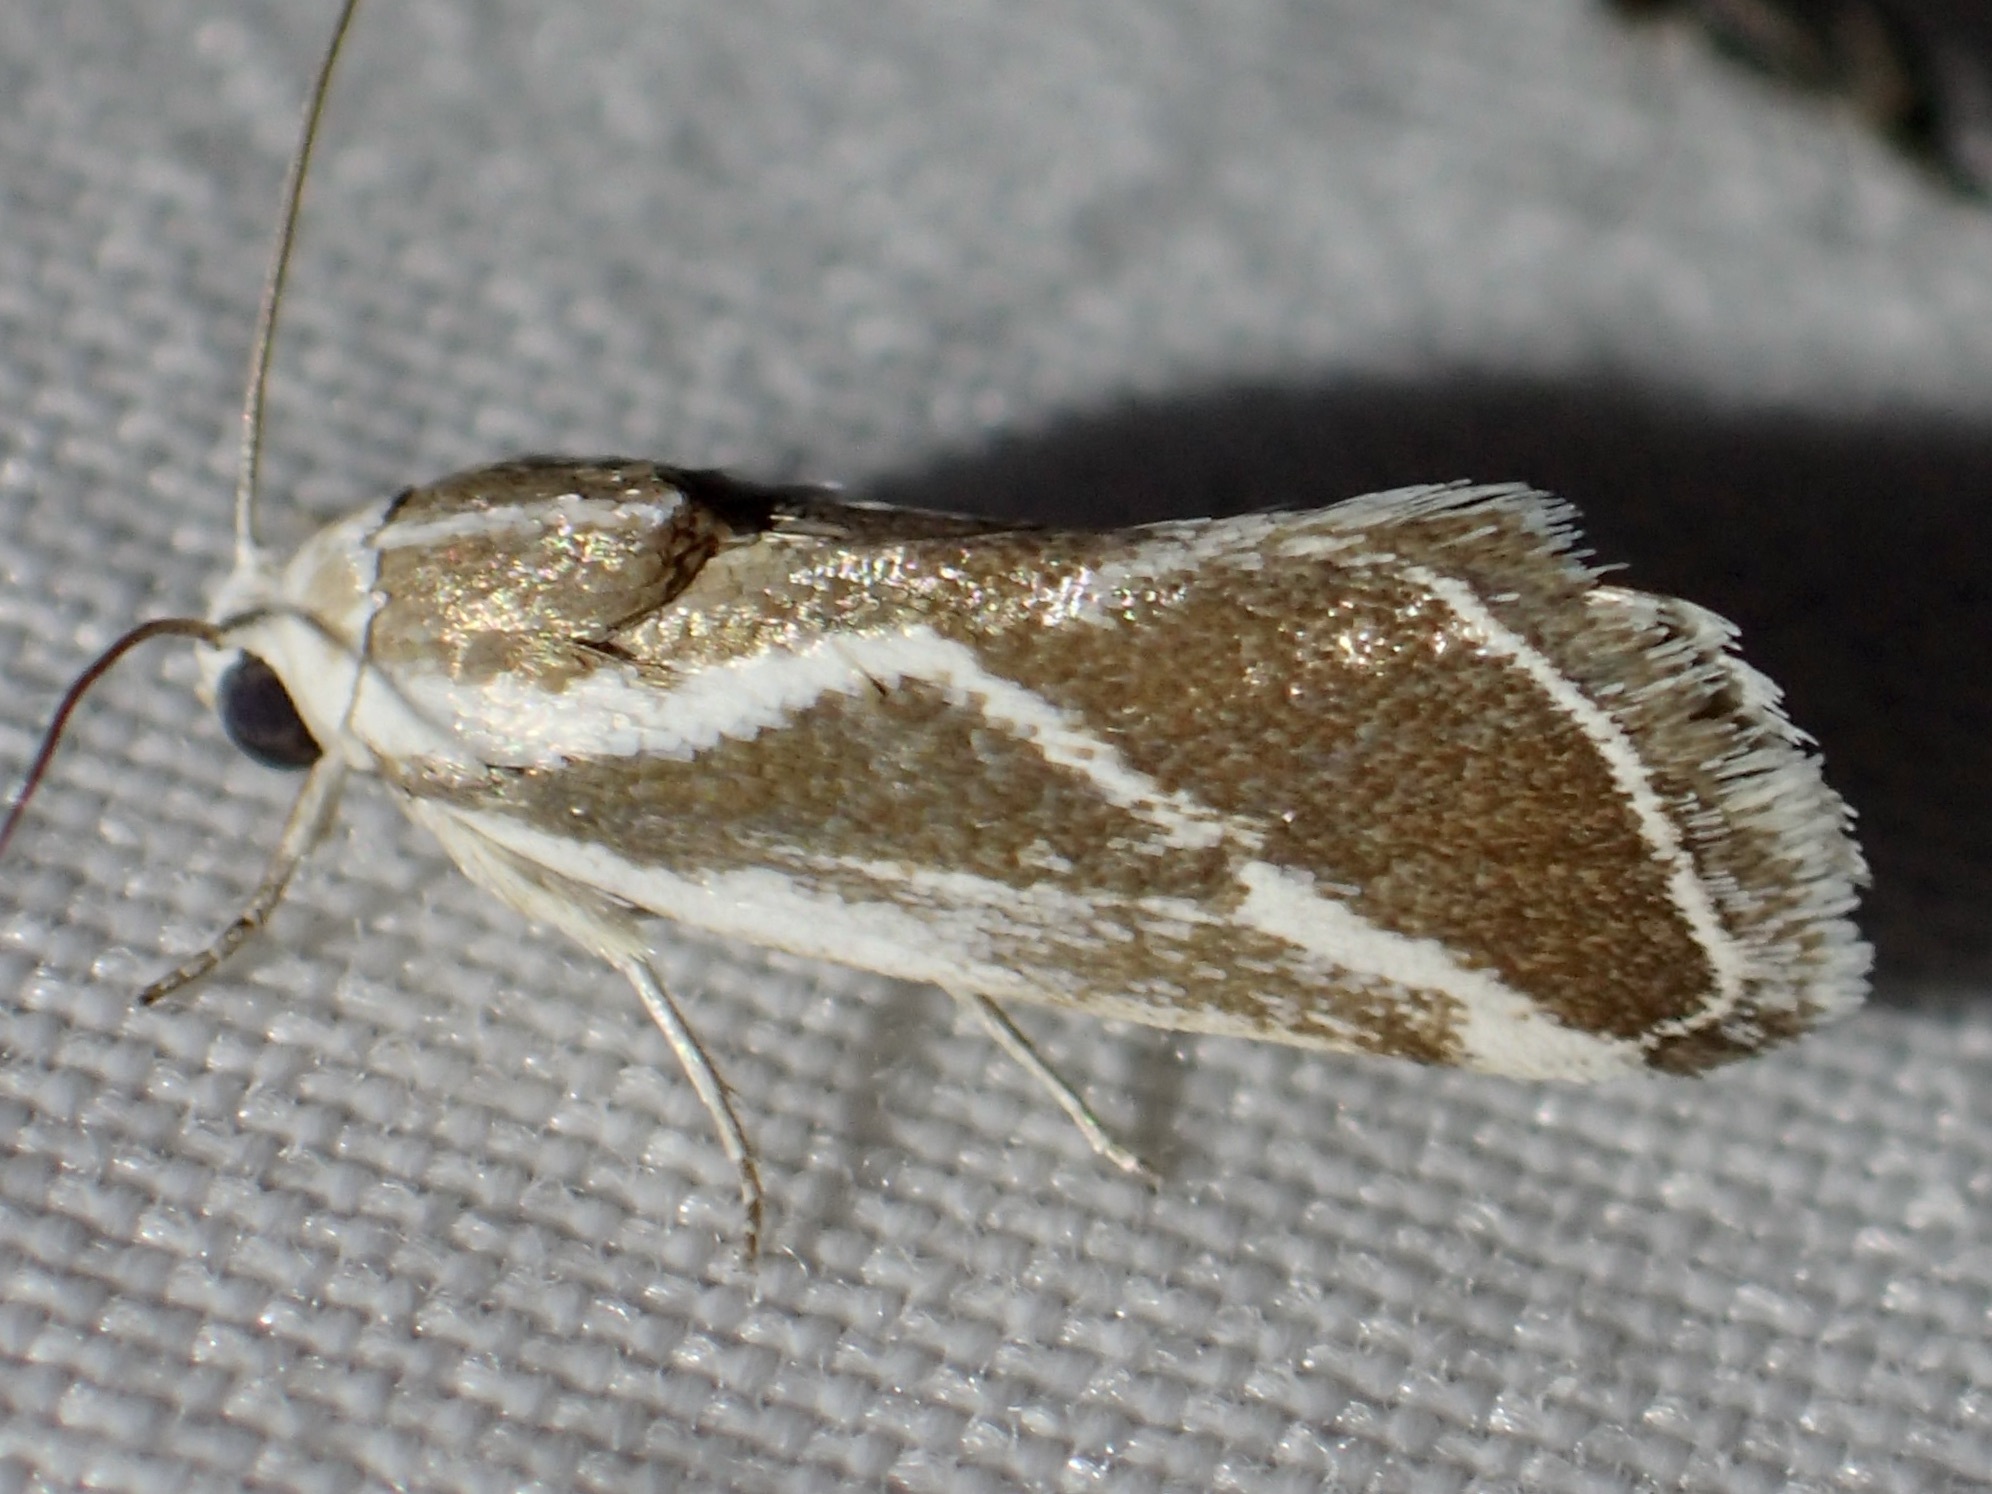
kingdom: Animalia
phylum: Arthropoda
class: Insecta
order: Lepidoptera
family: Noctuidae
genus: Acontia
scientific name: Acontia alata
